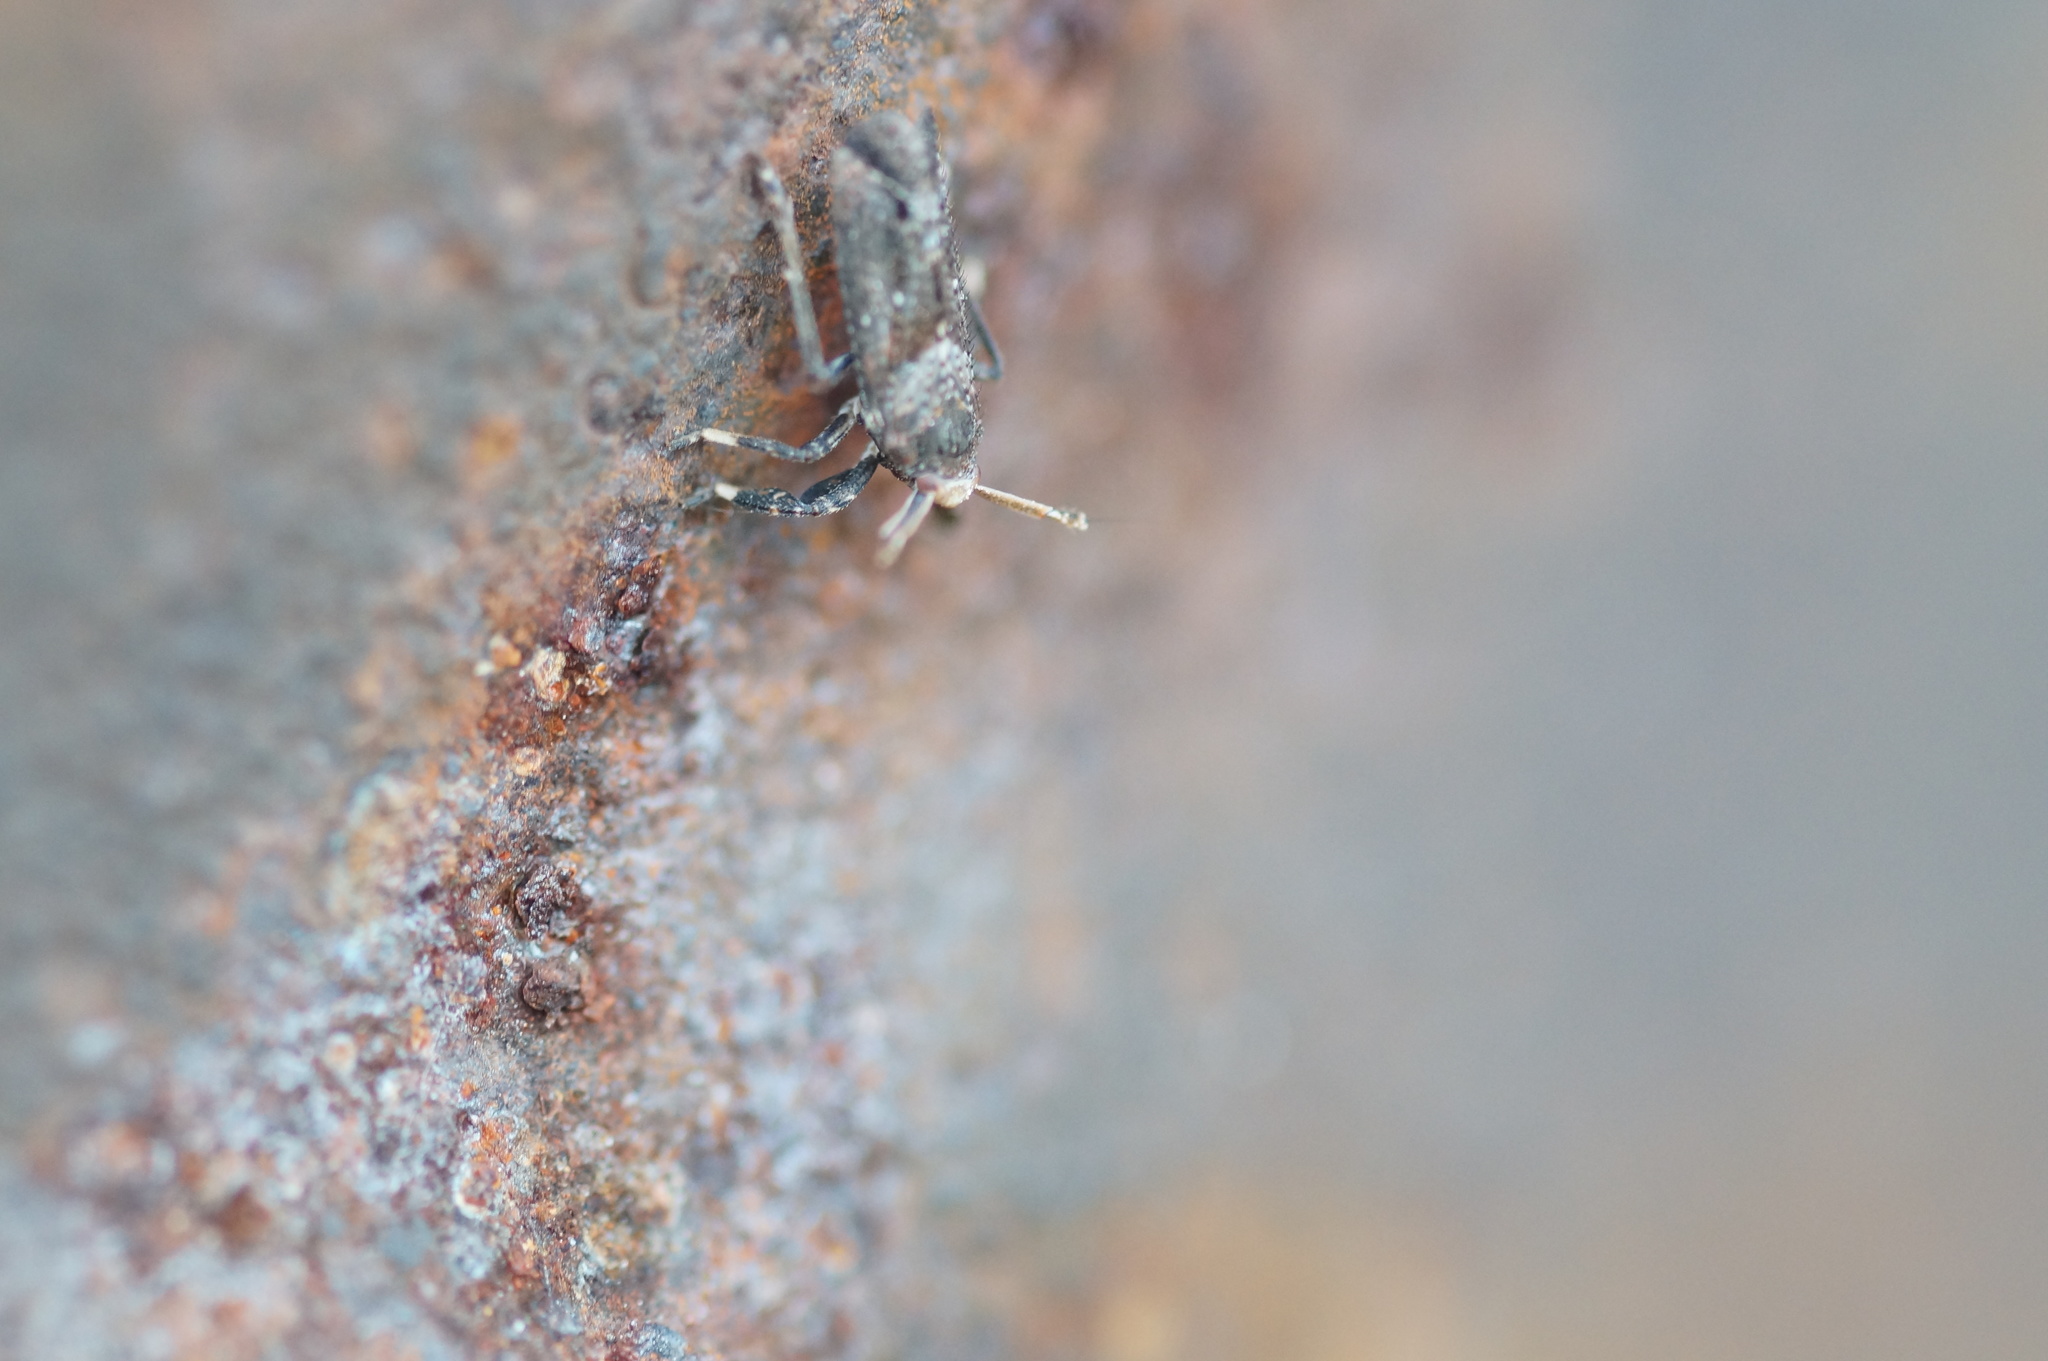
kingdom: Animalia
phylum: Arthropoda
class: Insecta
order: Hemiptera
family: Delphacidae
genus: Asiraca
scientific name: Asiraca clavicornis
